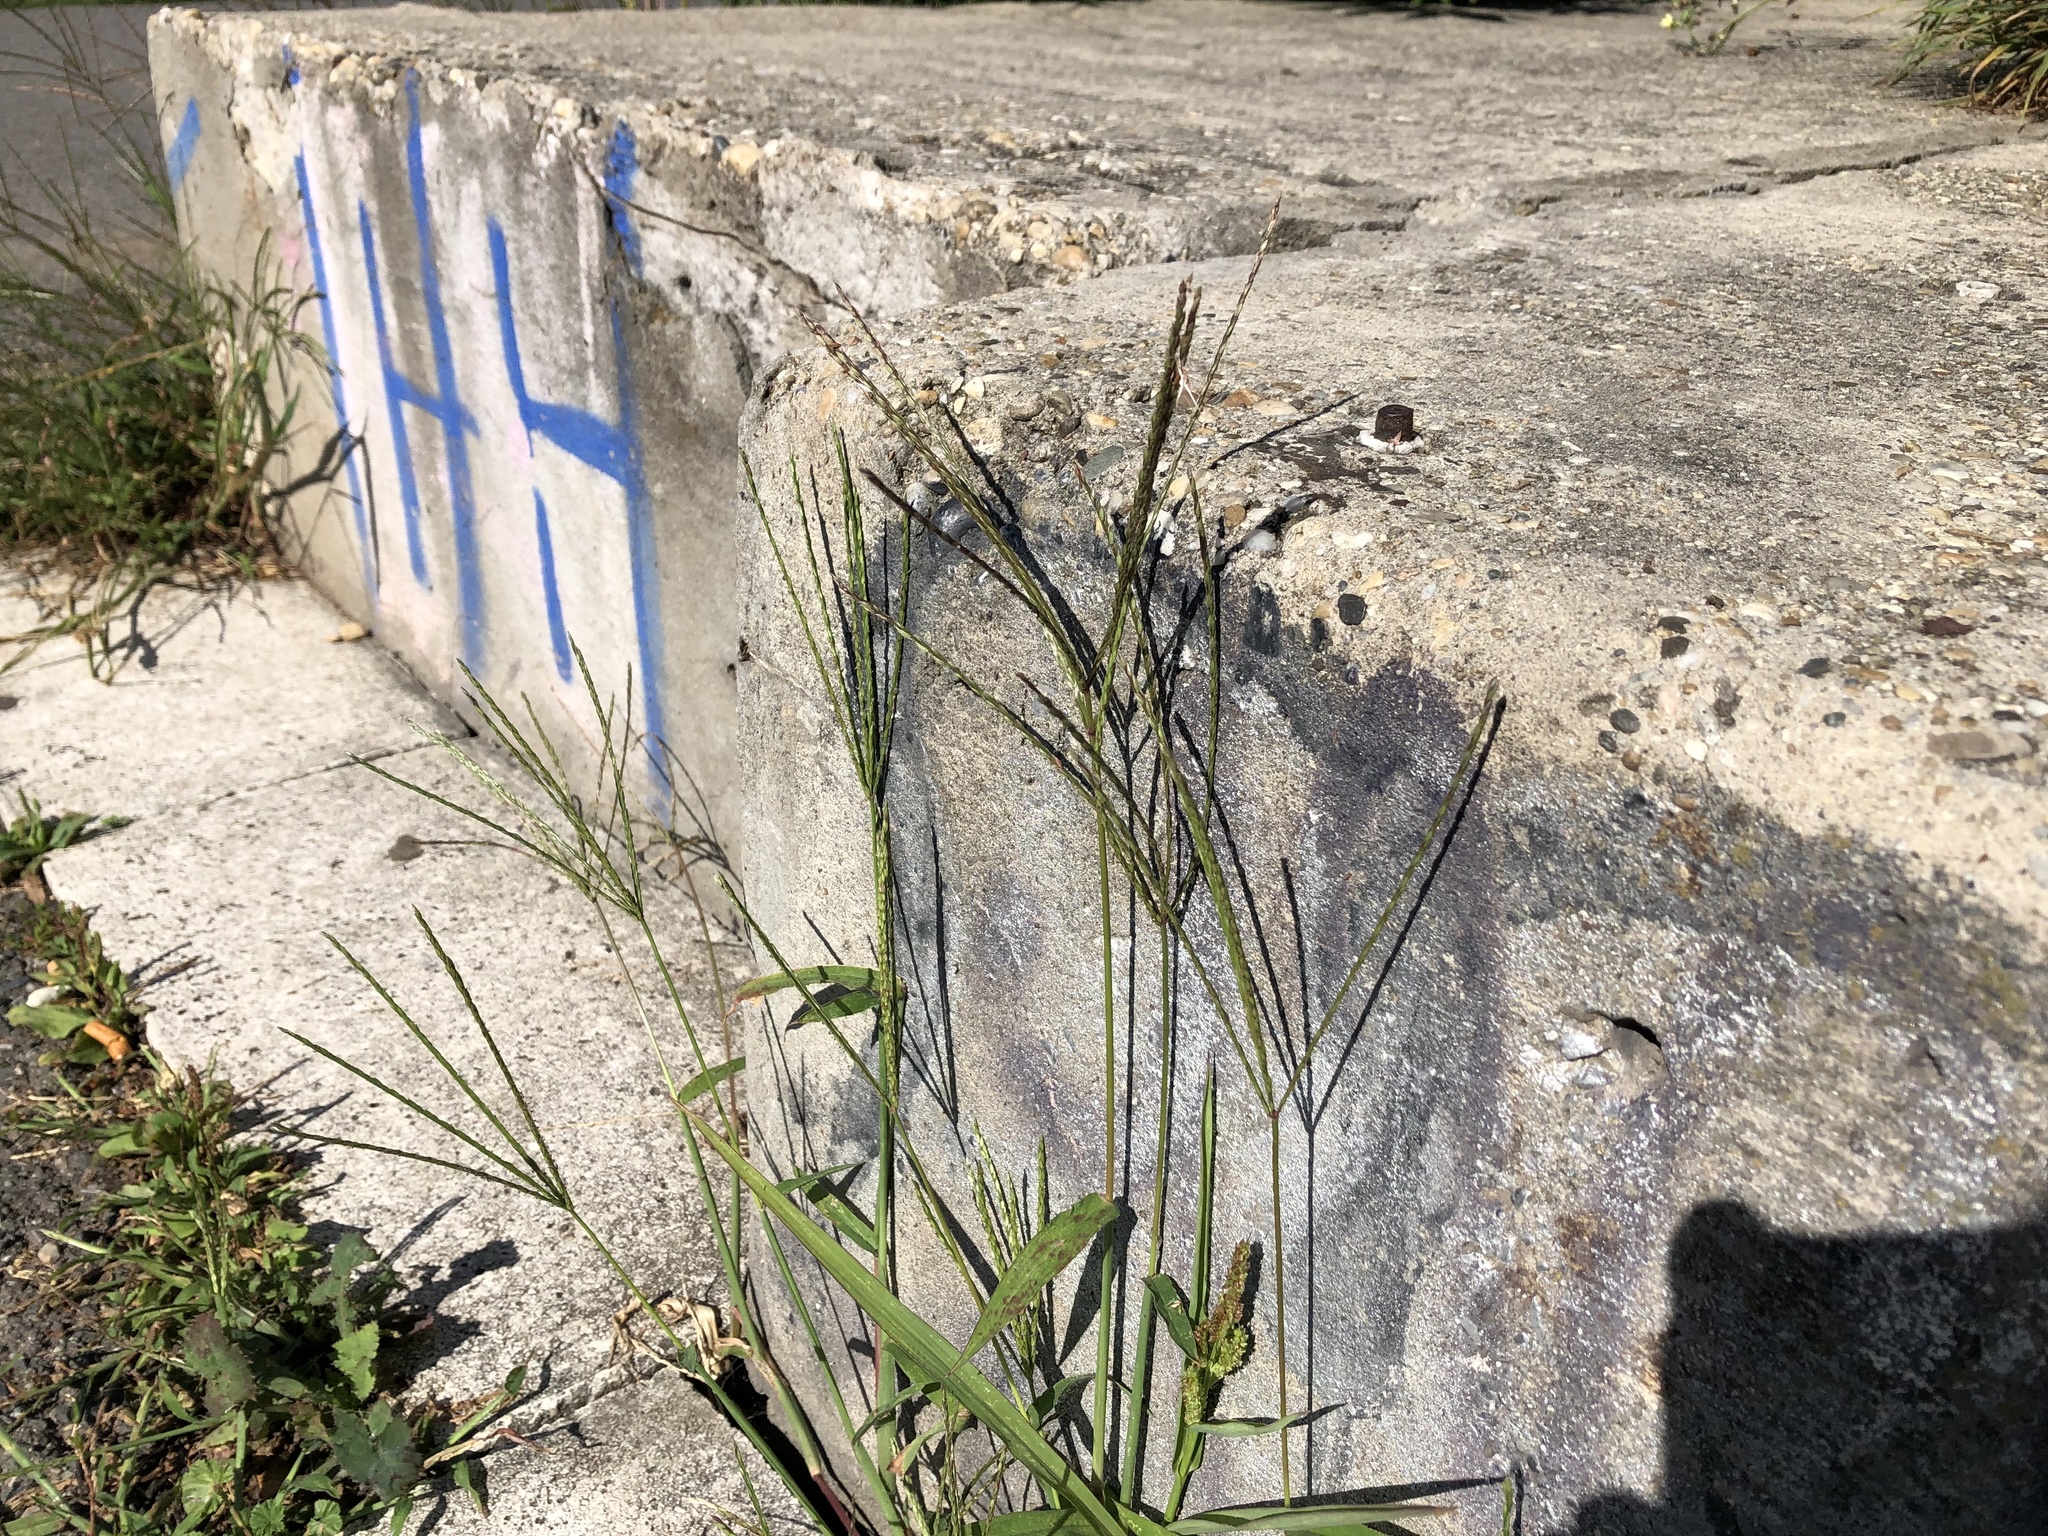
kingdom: Plantae
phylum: Tracheophyta
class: Liliopsida
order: Poales
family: Poaceae
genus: Digitaria
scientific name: Digitaria sanguinalis
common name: Hairy crabgrass
